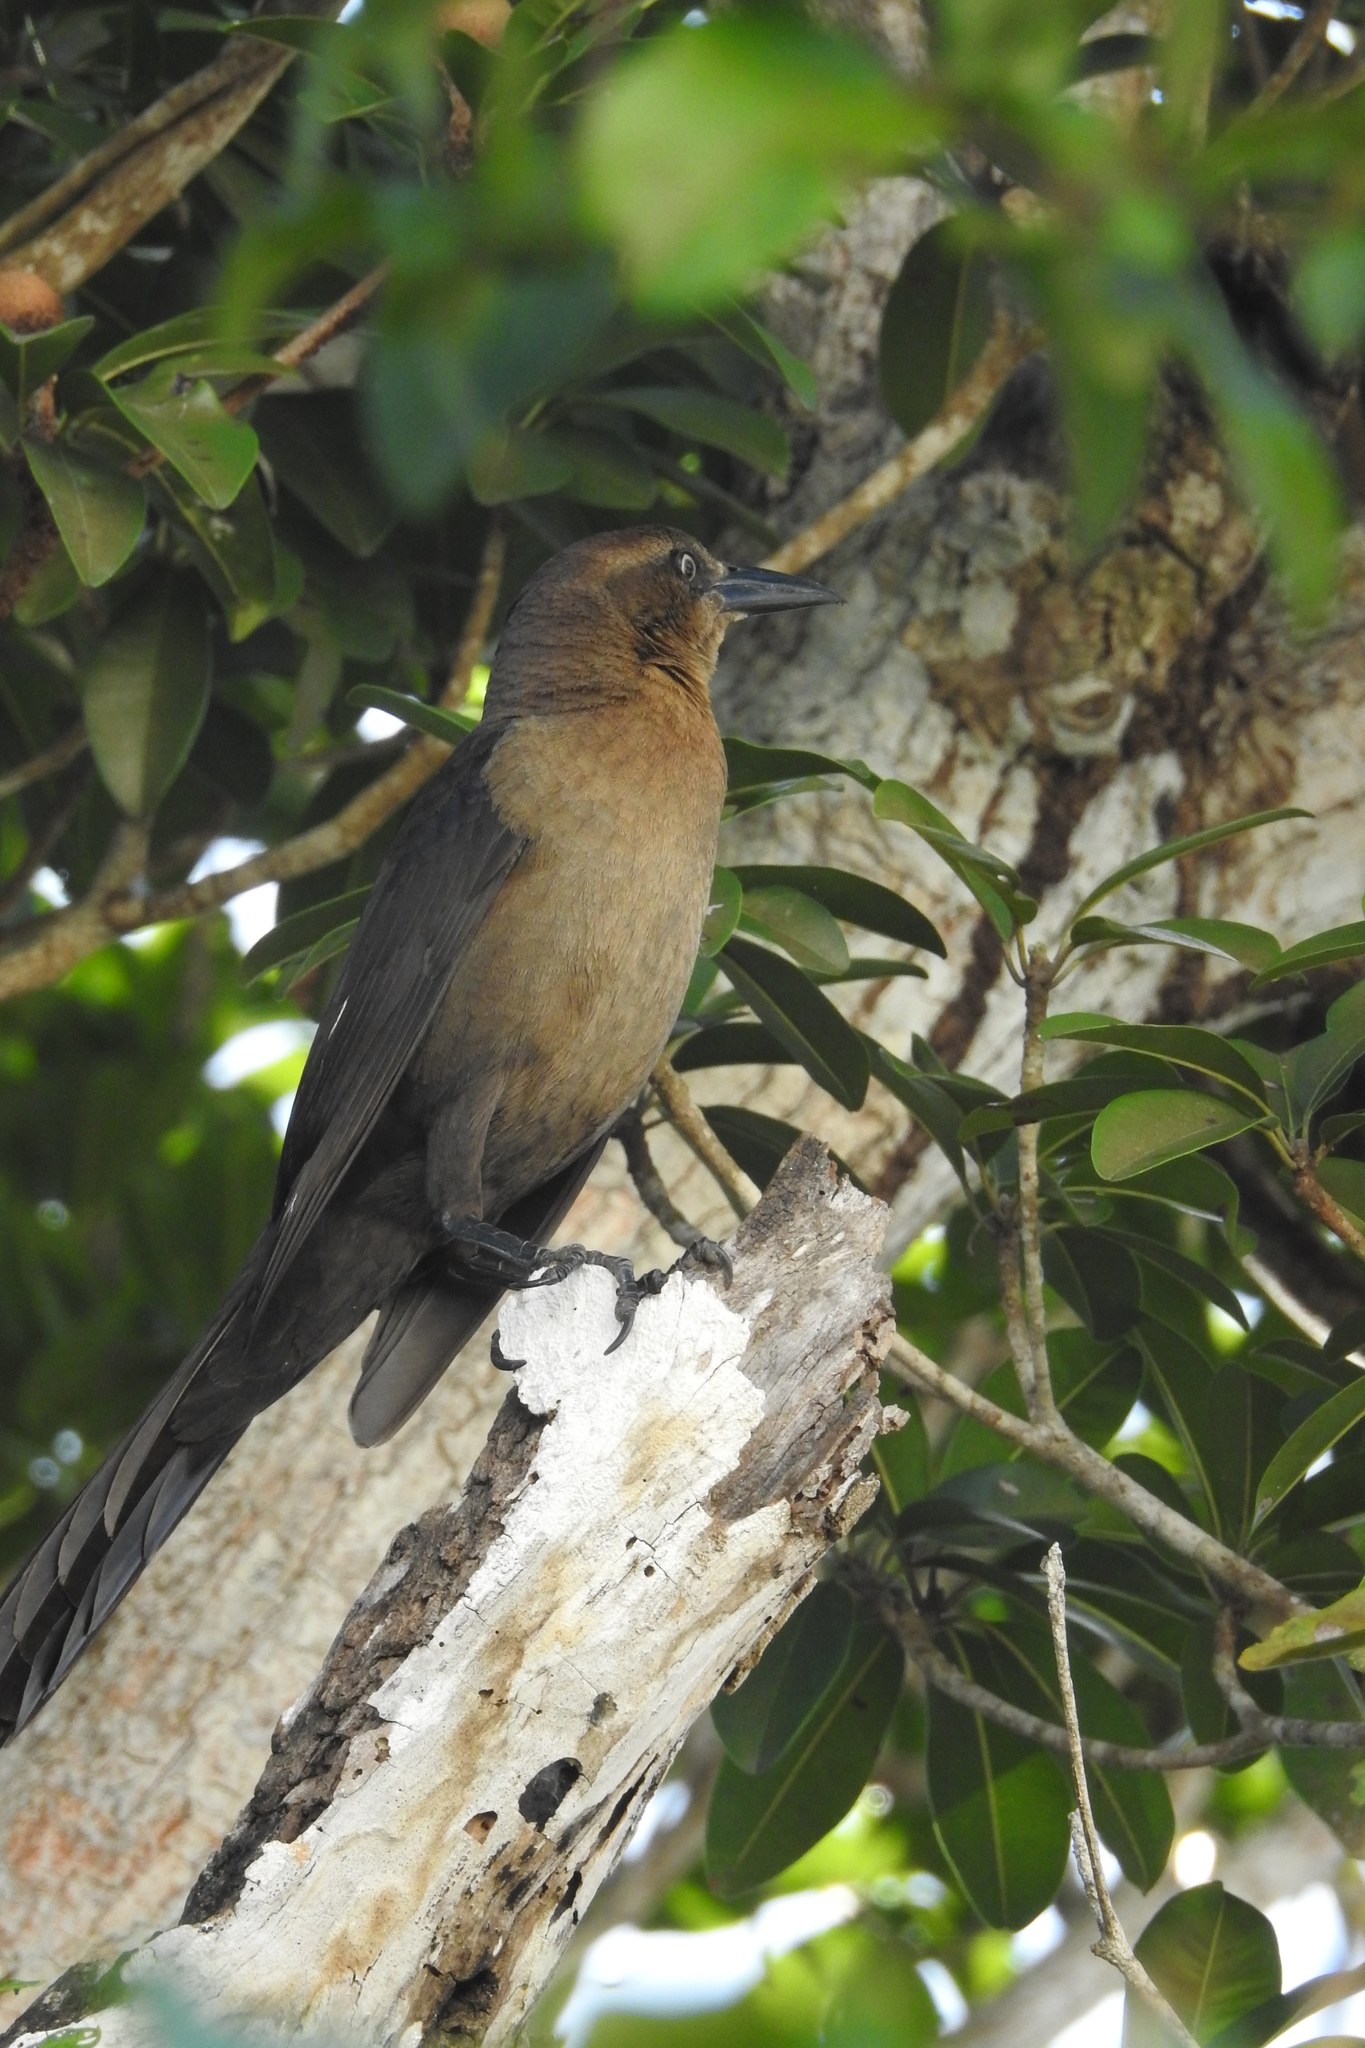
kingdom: Animalia
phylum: Chordata
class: Aves
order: Passeriformes
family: Icteridae
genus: Quiscalus
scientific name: Quiscalus mexicanus
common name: Great-tailed grackle
